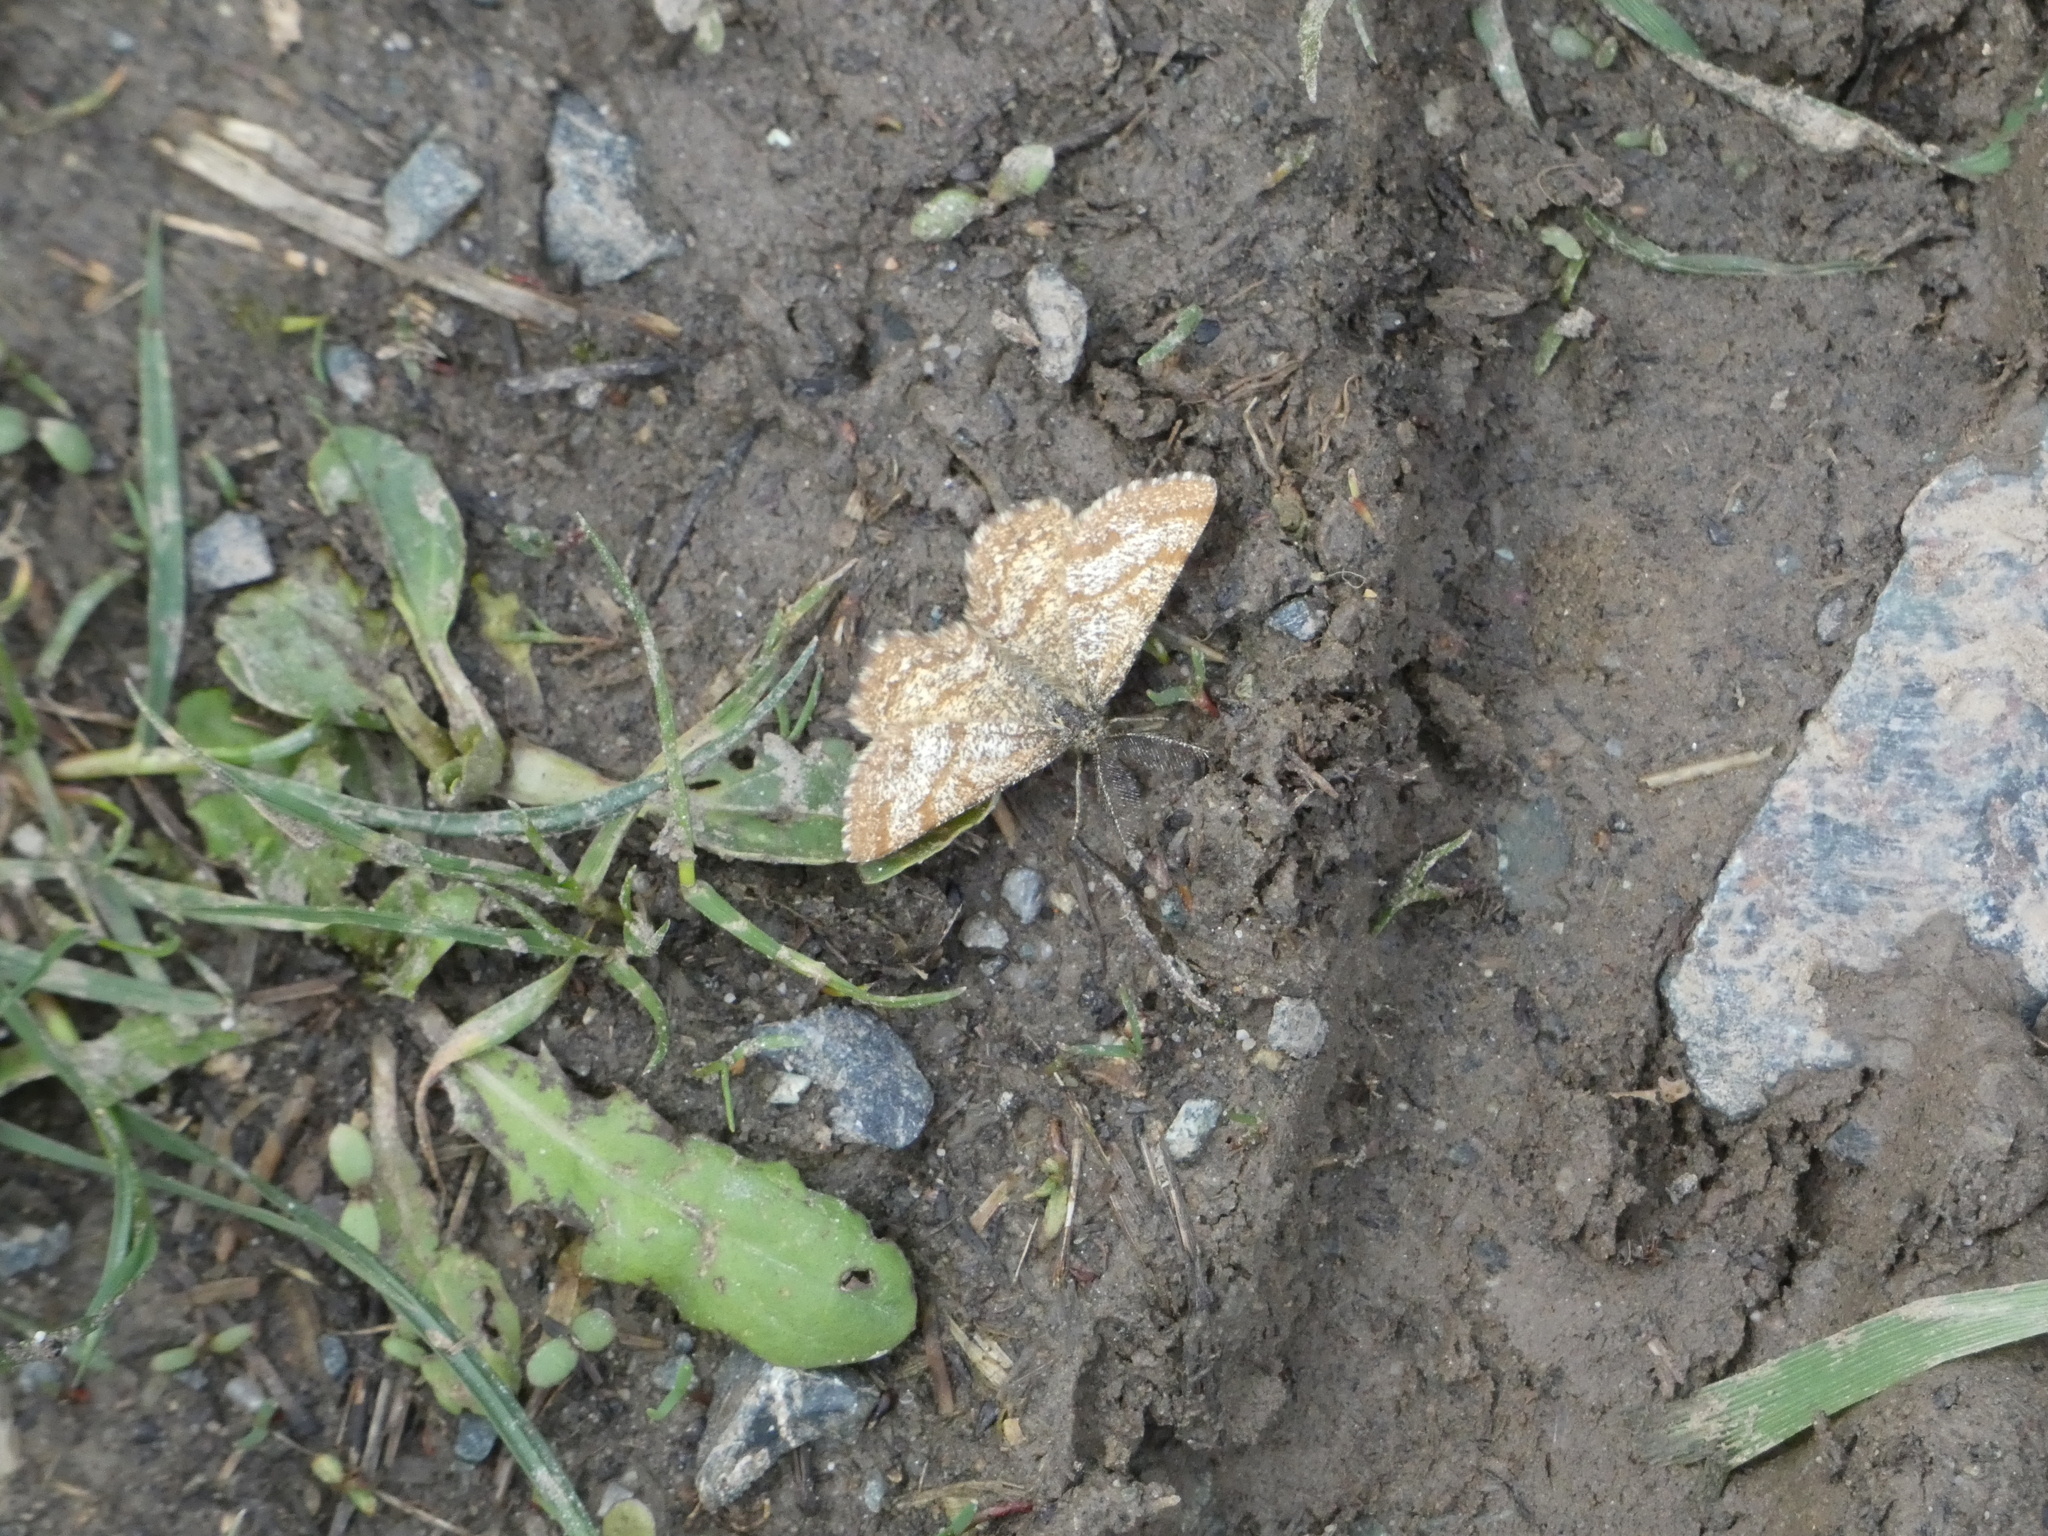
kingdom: Animalia
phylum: Arthropoda
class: Insecta
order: Lepidoptera
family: Geometridae
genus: Ematurga
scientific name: Ematurga atomaria
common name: Common heath
